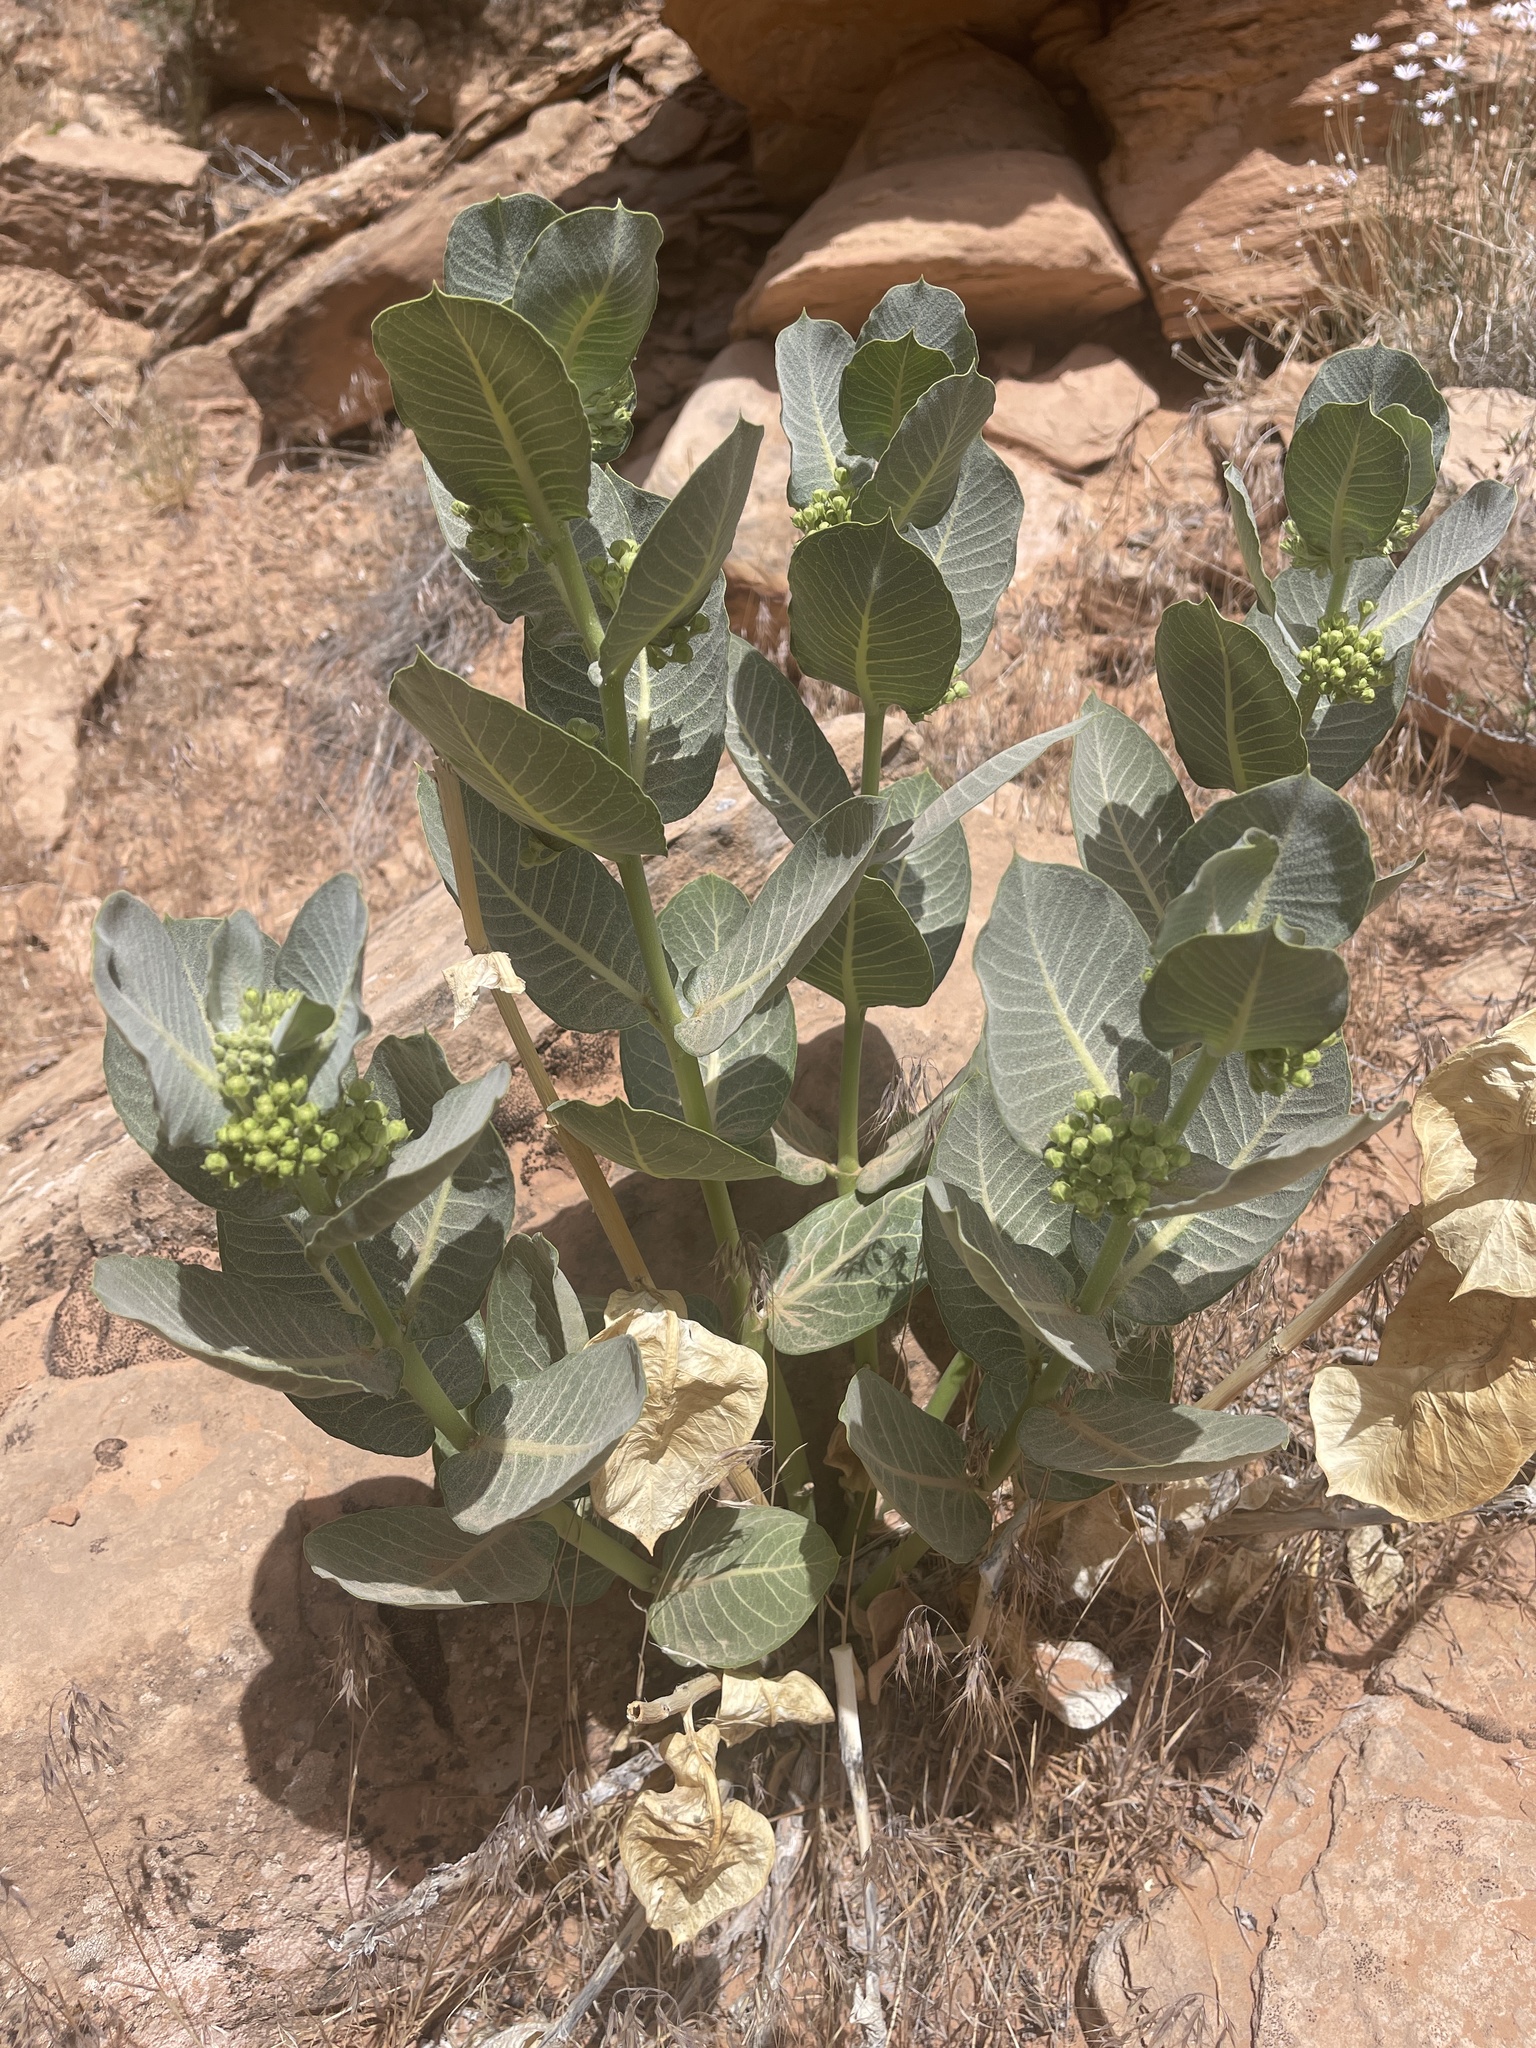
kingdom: Plantae
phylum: Tracheophyta
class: Magnoliopsida
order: Gentianales
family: Apocynaceae
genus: Asclepias
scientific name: Asclepias latifolia
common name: Broadleaf milkweed
